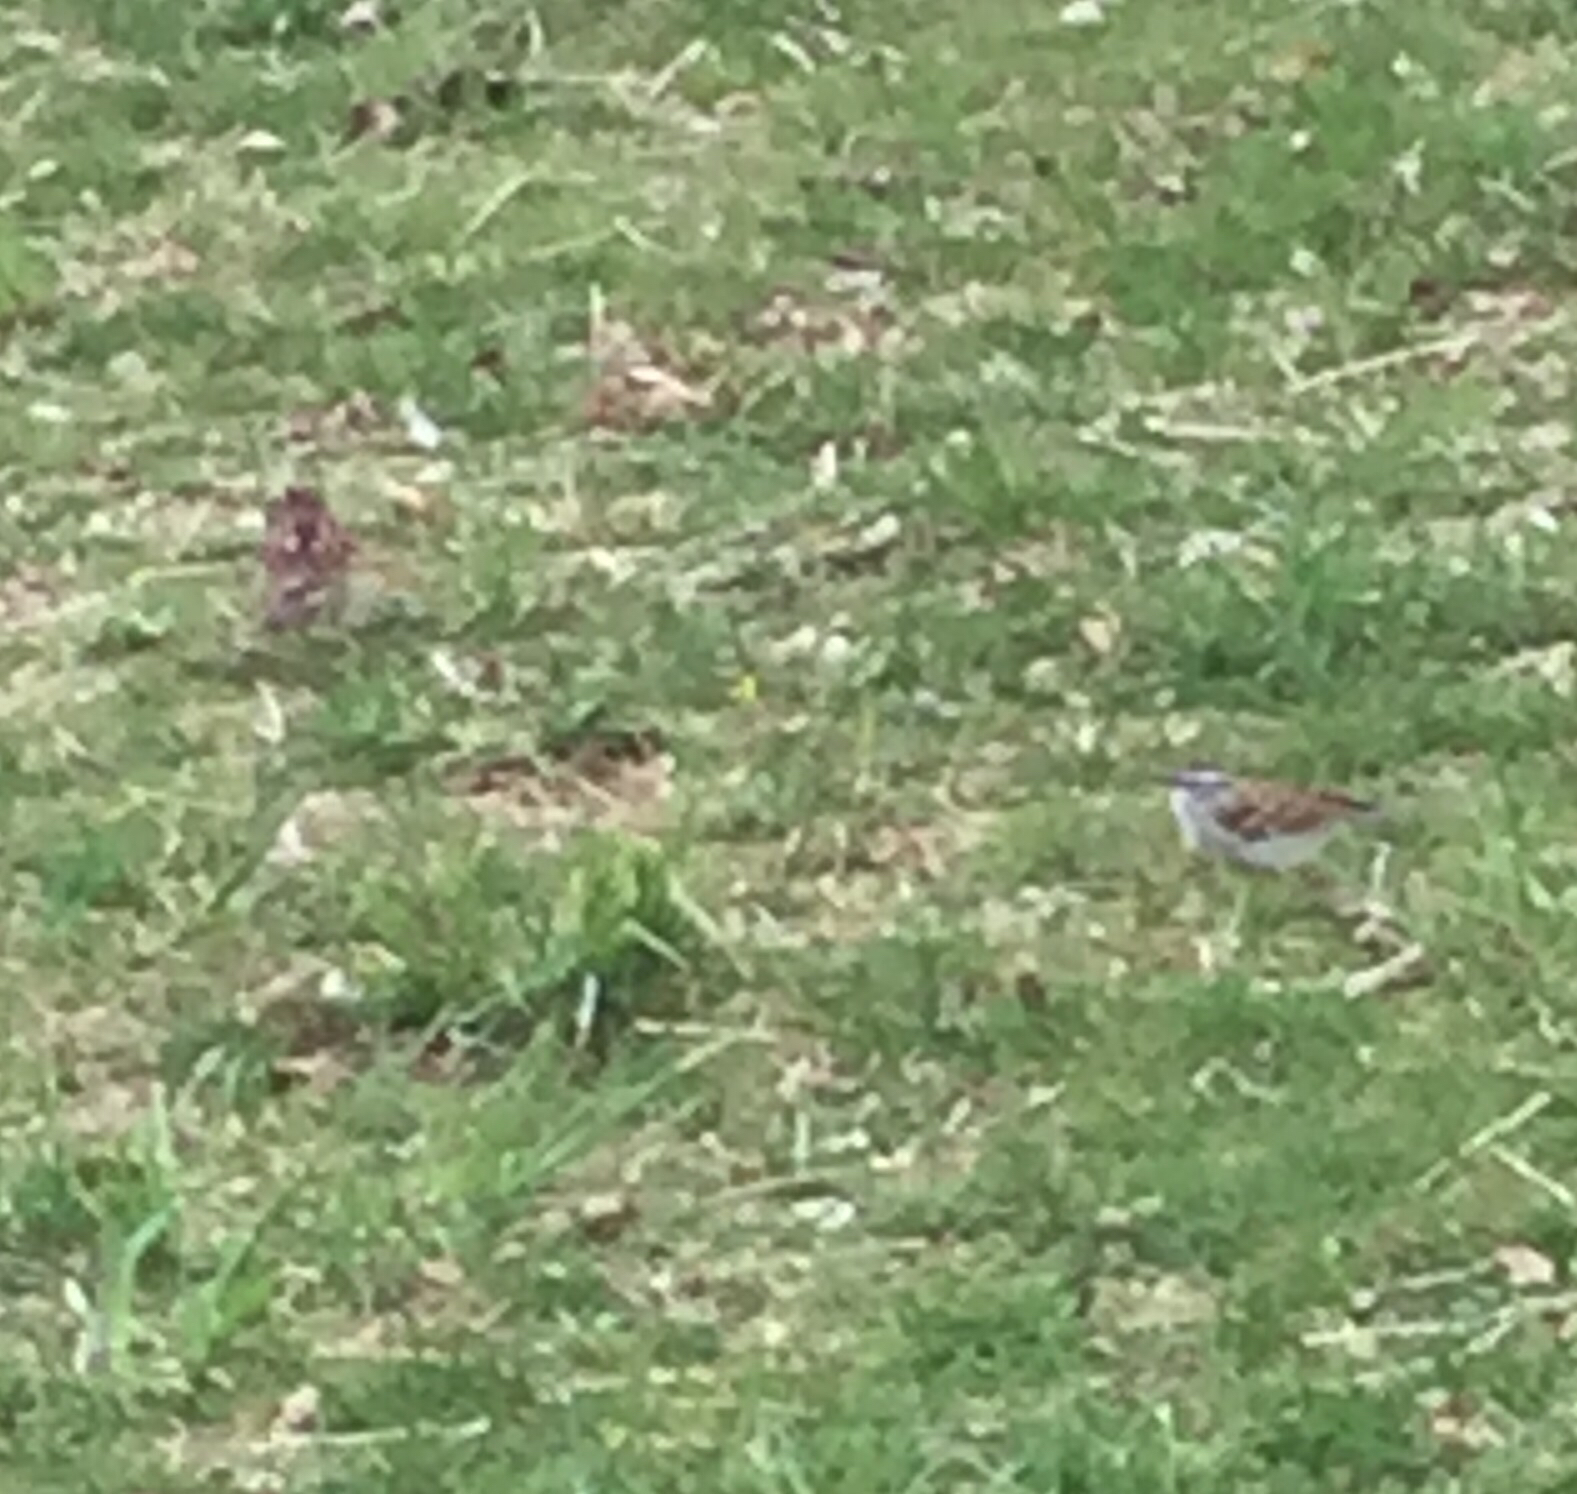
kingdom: Animalia
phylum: Chordata
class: Aves
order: Passeriformes
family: Passerellidae
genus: Zonotrichia
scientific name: Zonotrichia albicollis
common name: White-throated sparrow
